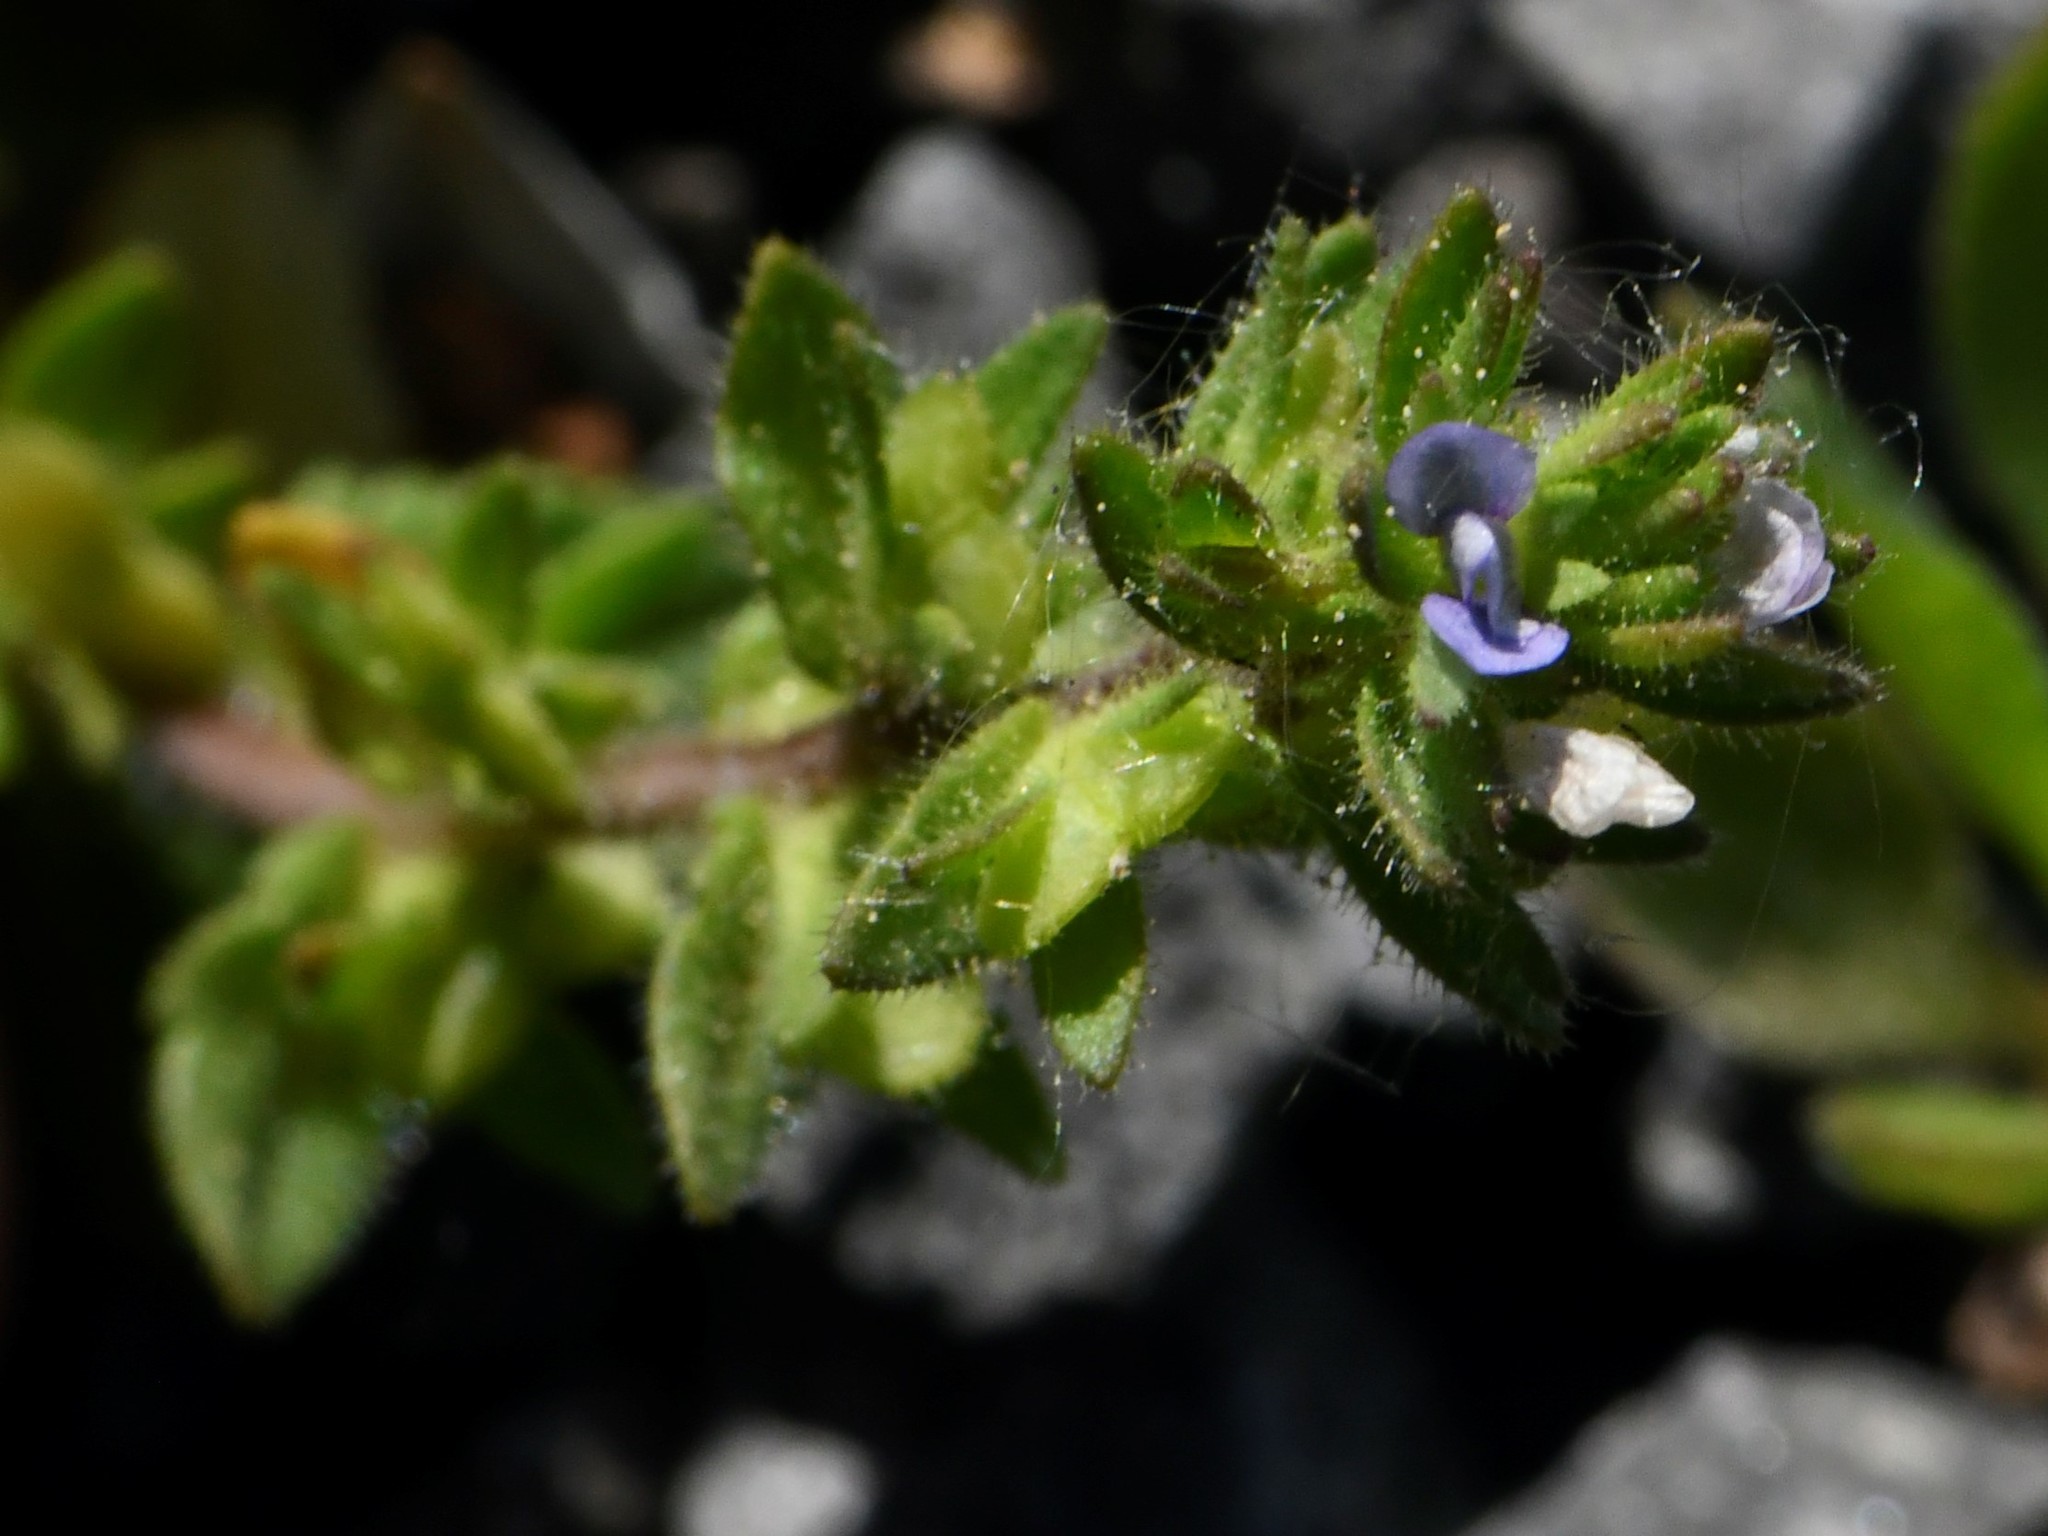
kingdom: Plantae
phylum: Tracheophyta
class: Magnoliopsida
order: Lamiales
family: Plantaginaceae
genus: Veronica
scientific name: Veronica arvensis
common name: Corn speedwell
